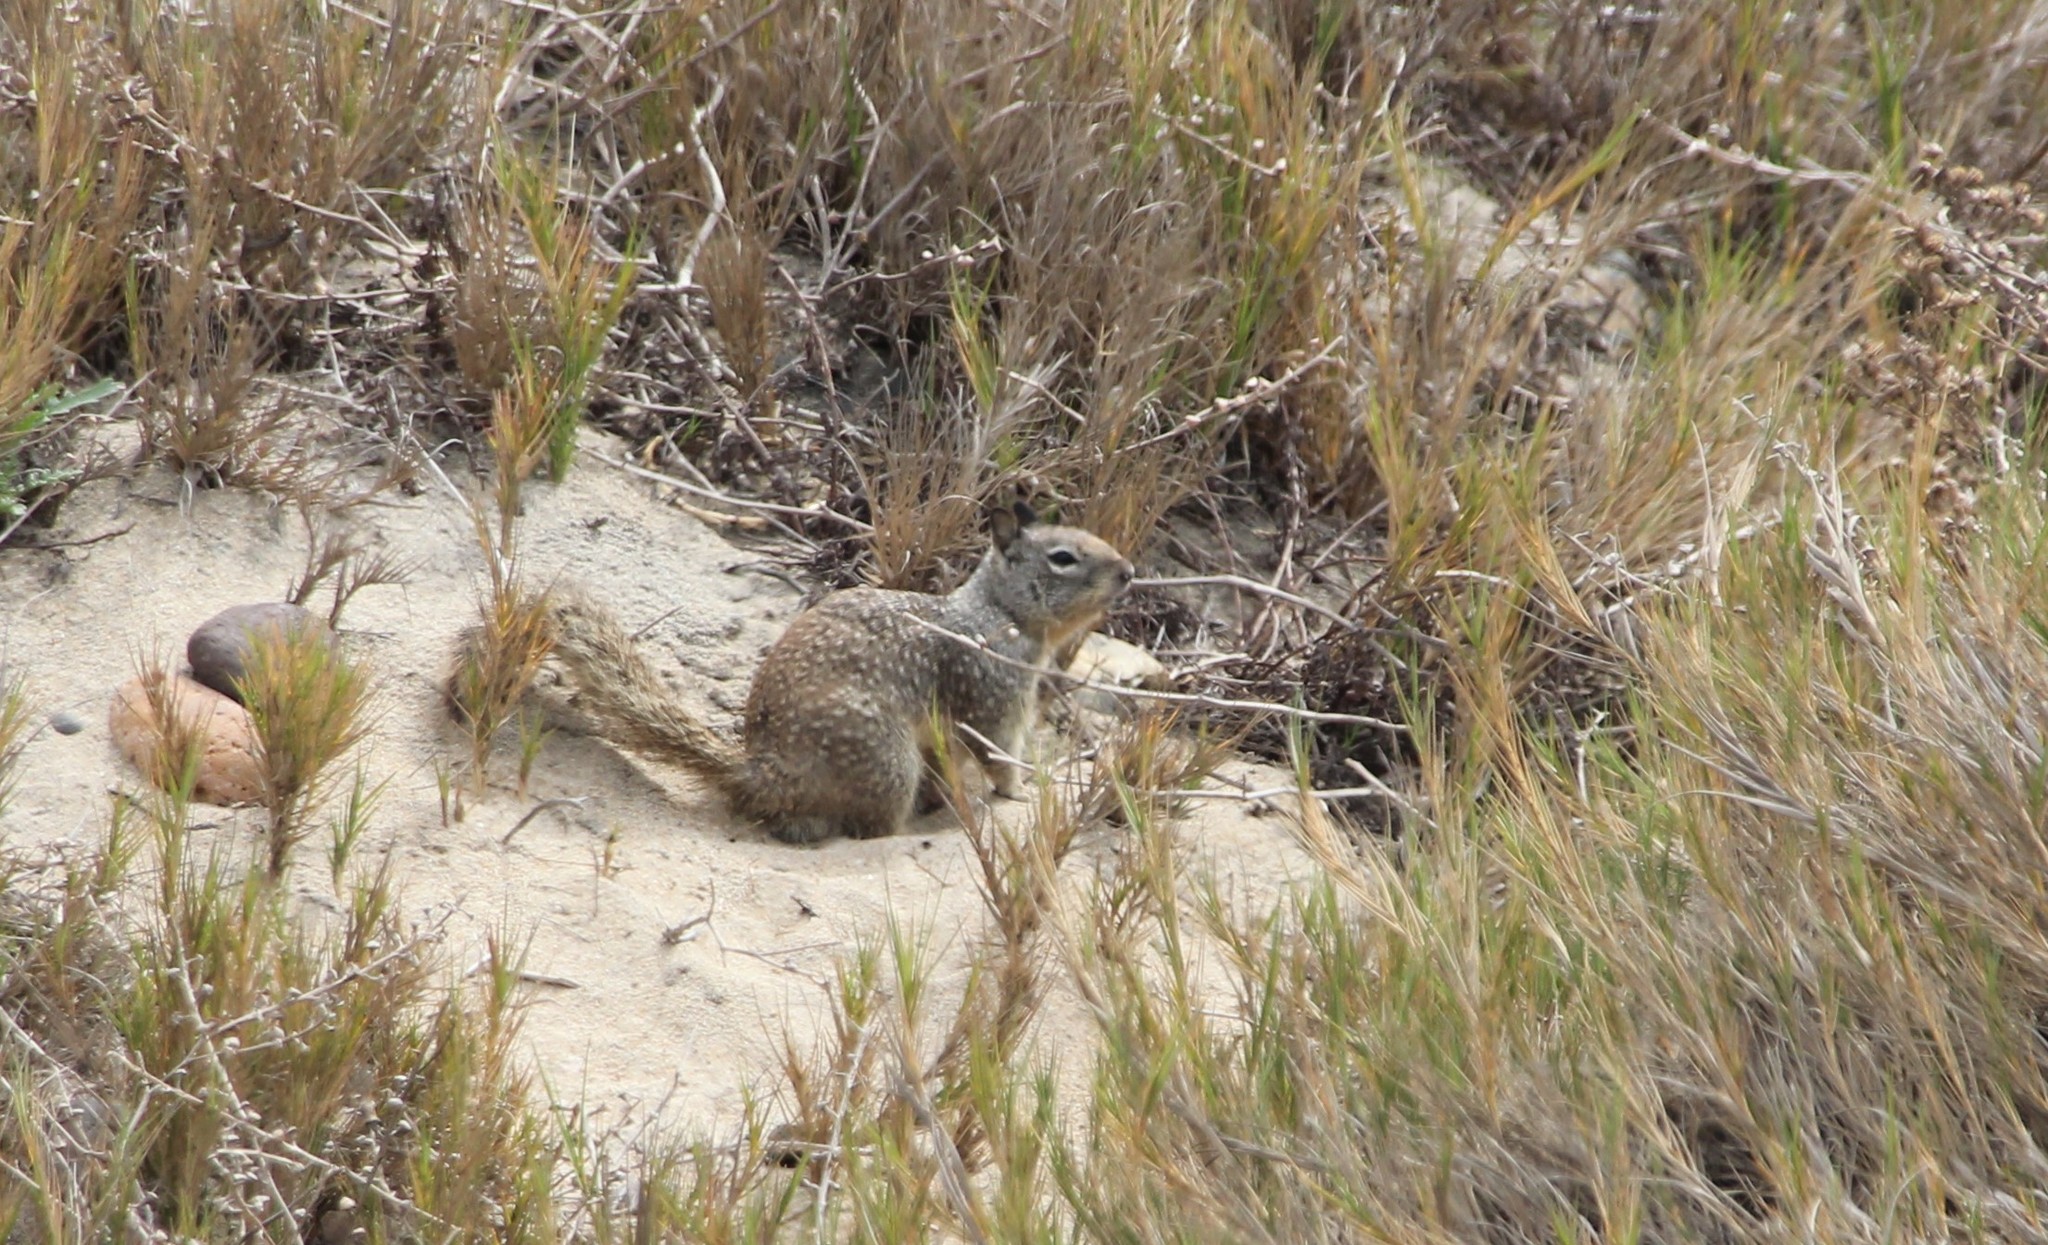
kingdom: Animalia
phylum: Chordata
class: Mammalia
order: Rodentia
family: Sciuridae
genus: Otospermophilus
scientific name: Otospermophilus beecheyi
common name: California ground squirrel
